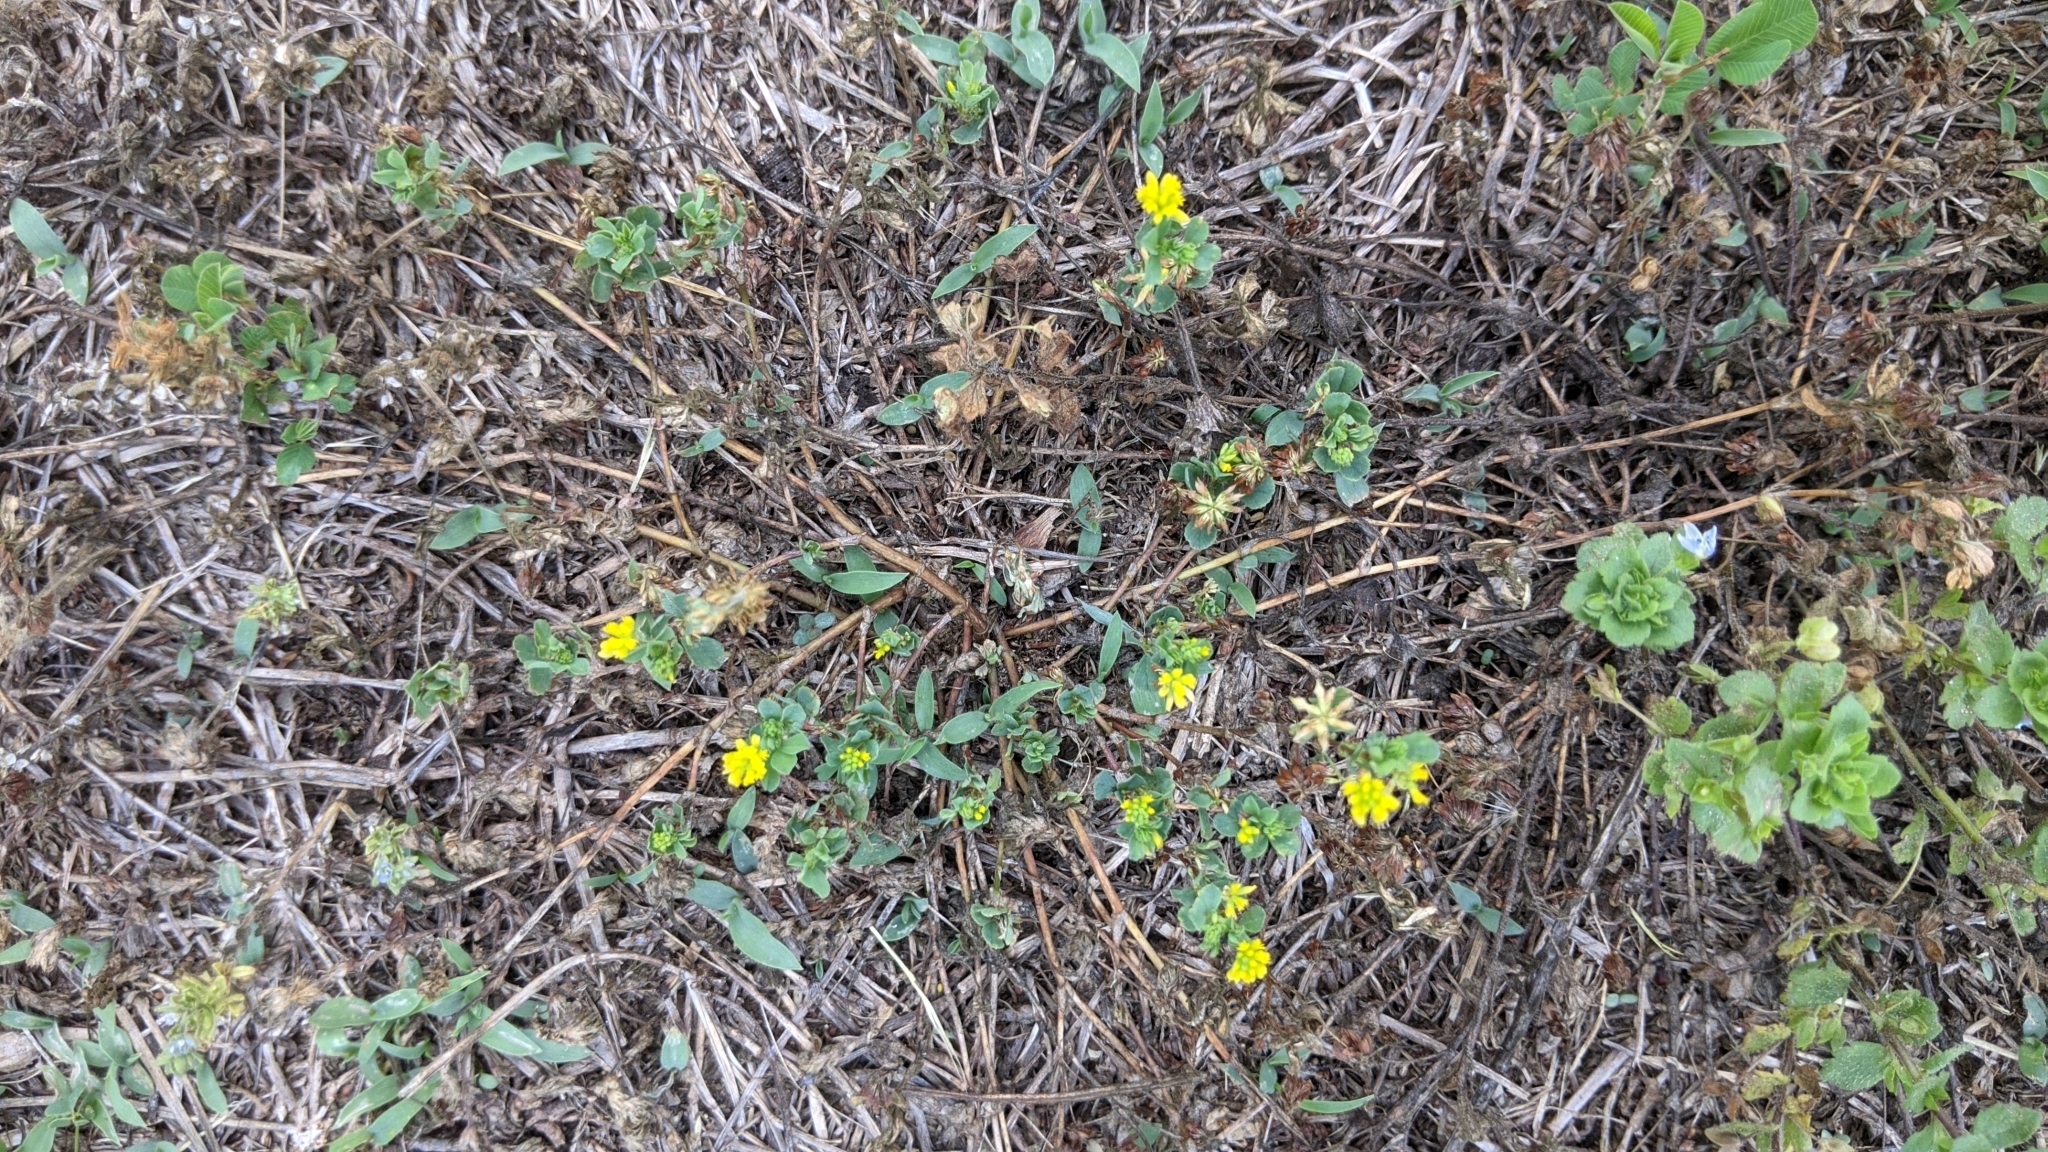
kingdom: Plantae
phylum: Tracheophyta
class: Magnoliopsida
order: Fabales
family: Fabaceae
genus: Trifolium
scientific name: Trifolium dubium
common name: Suckling clover
